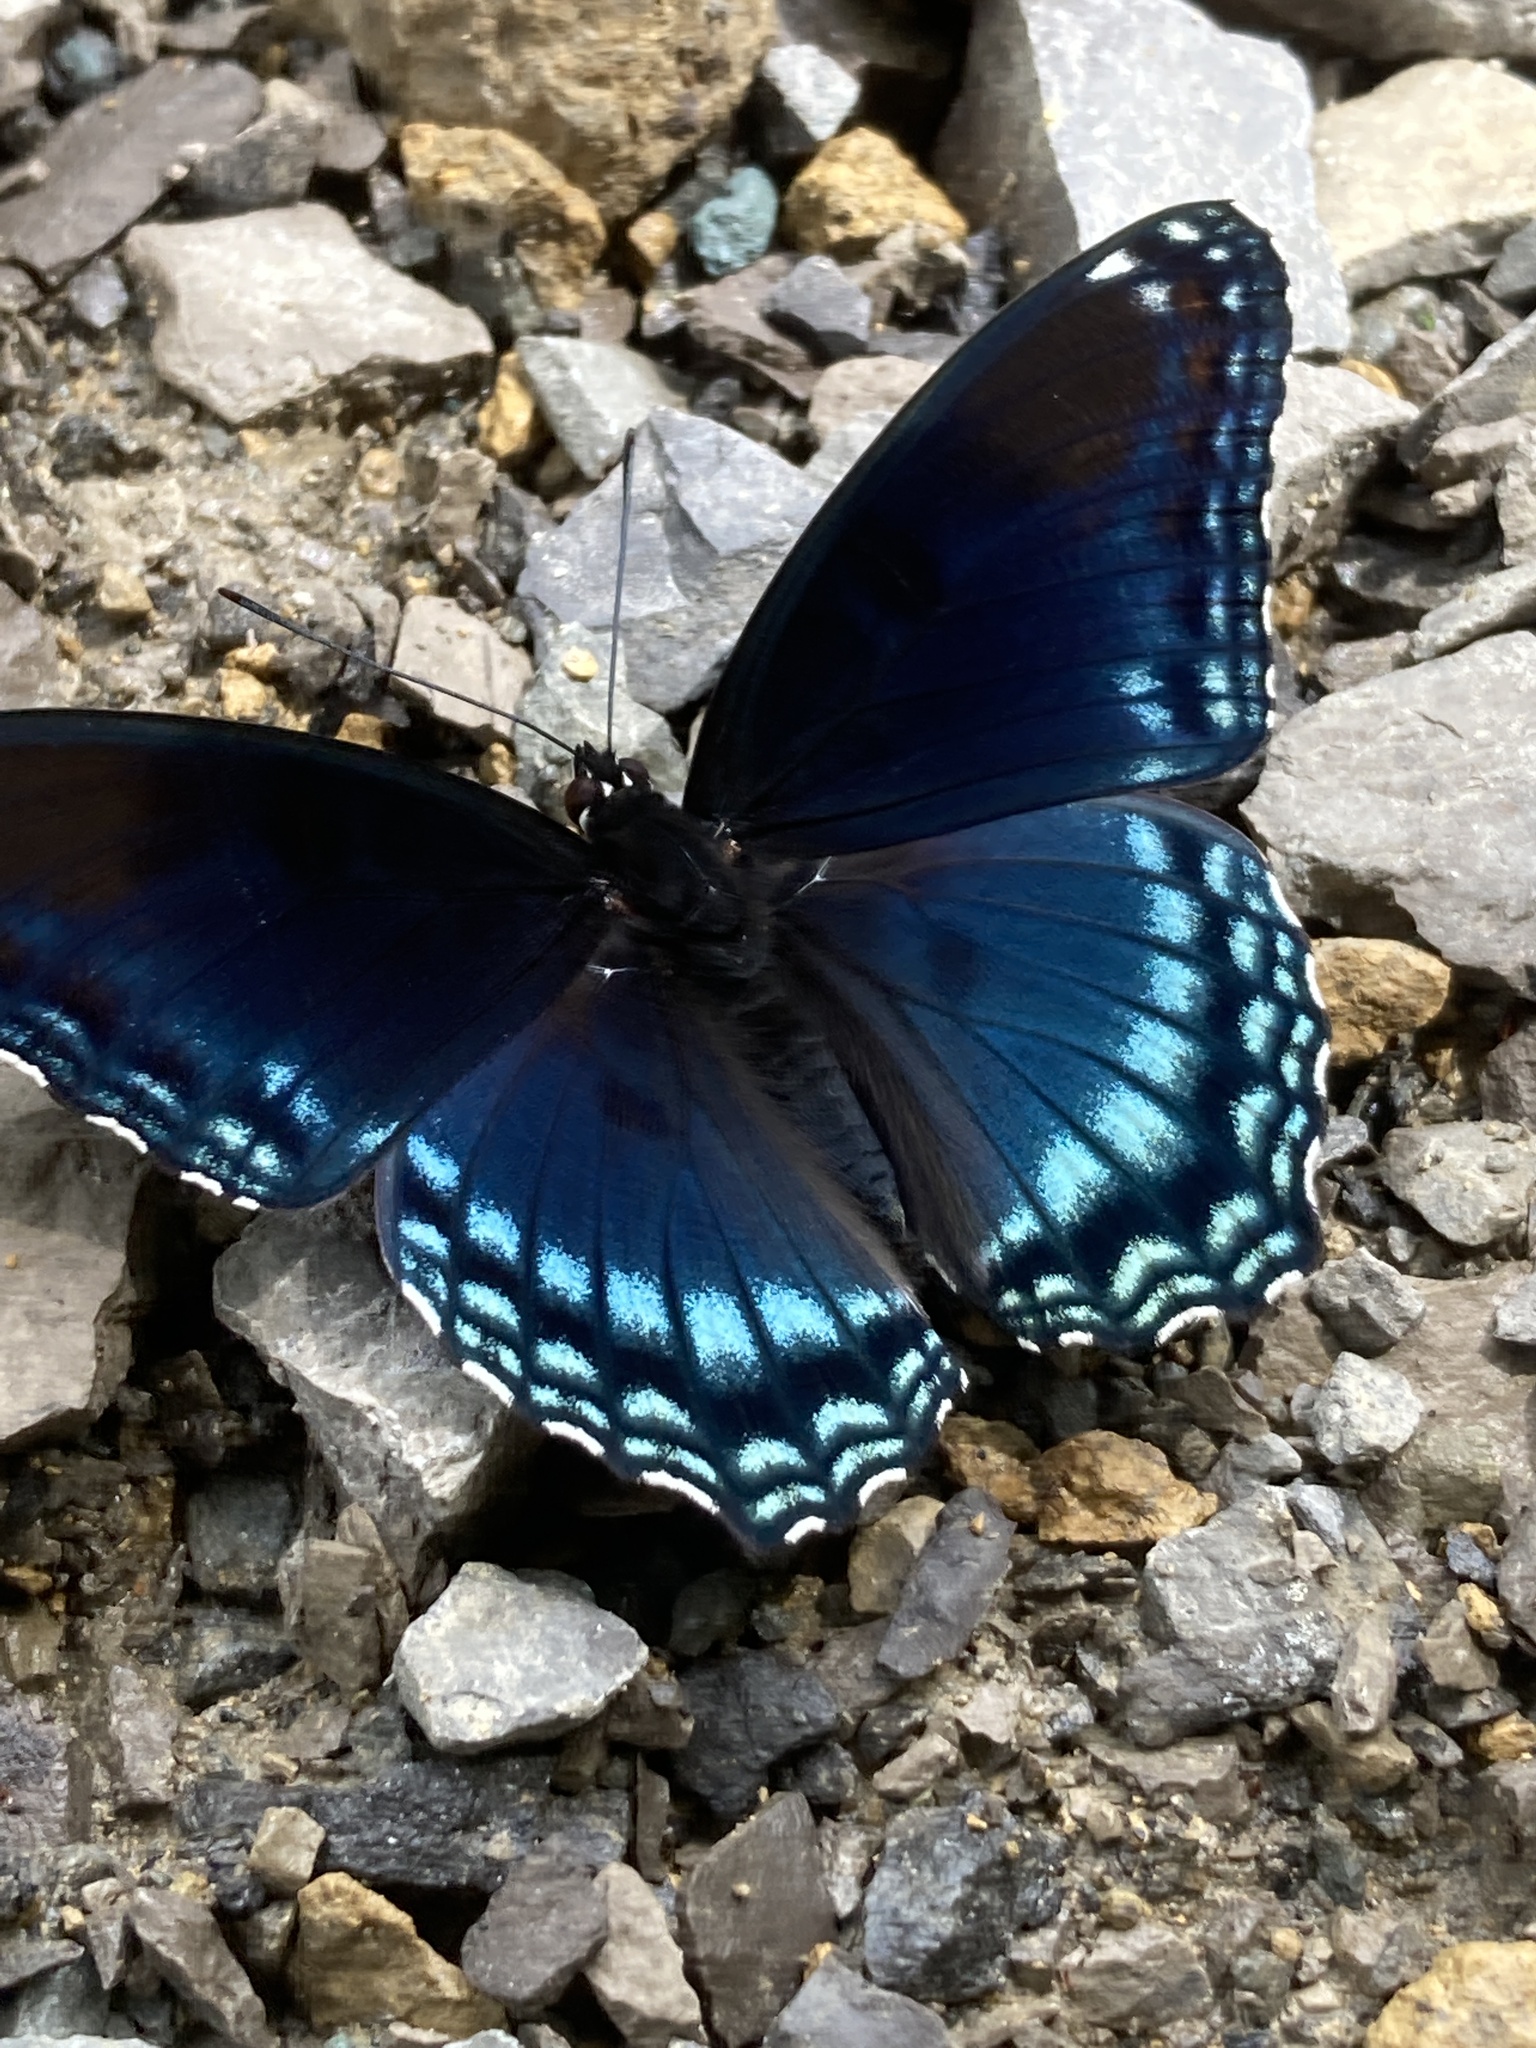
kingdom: Animalia
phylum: Arthropoda
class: Insecta
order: Lepidoptera
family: Nymphalidae
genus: Limenitis
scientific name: Limenitis arthemis
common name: Red-spotted admiral
